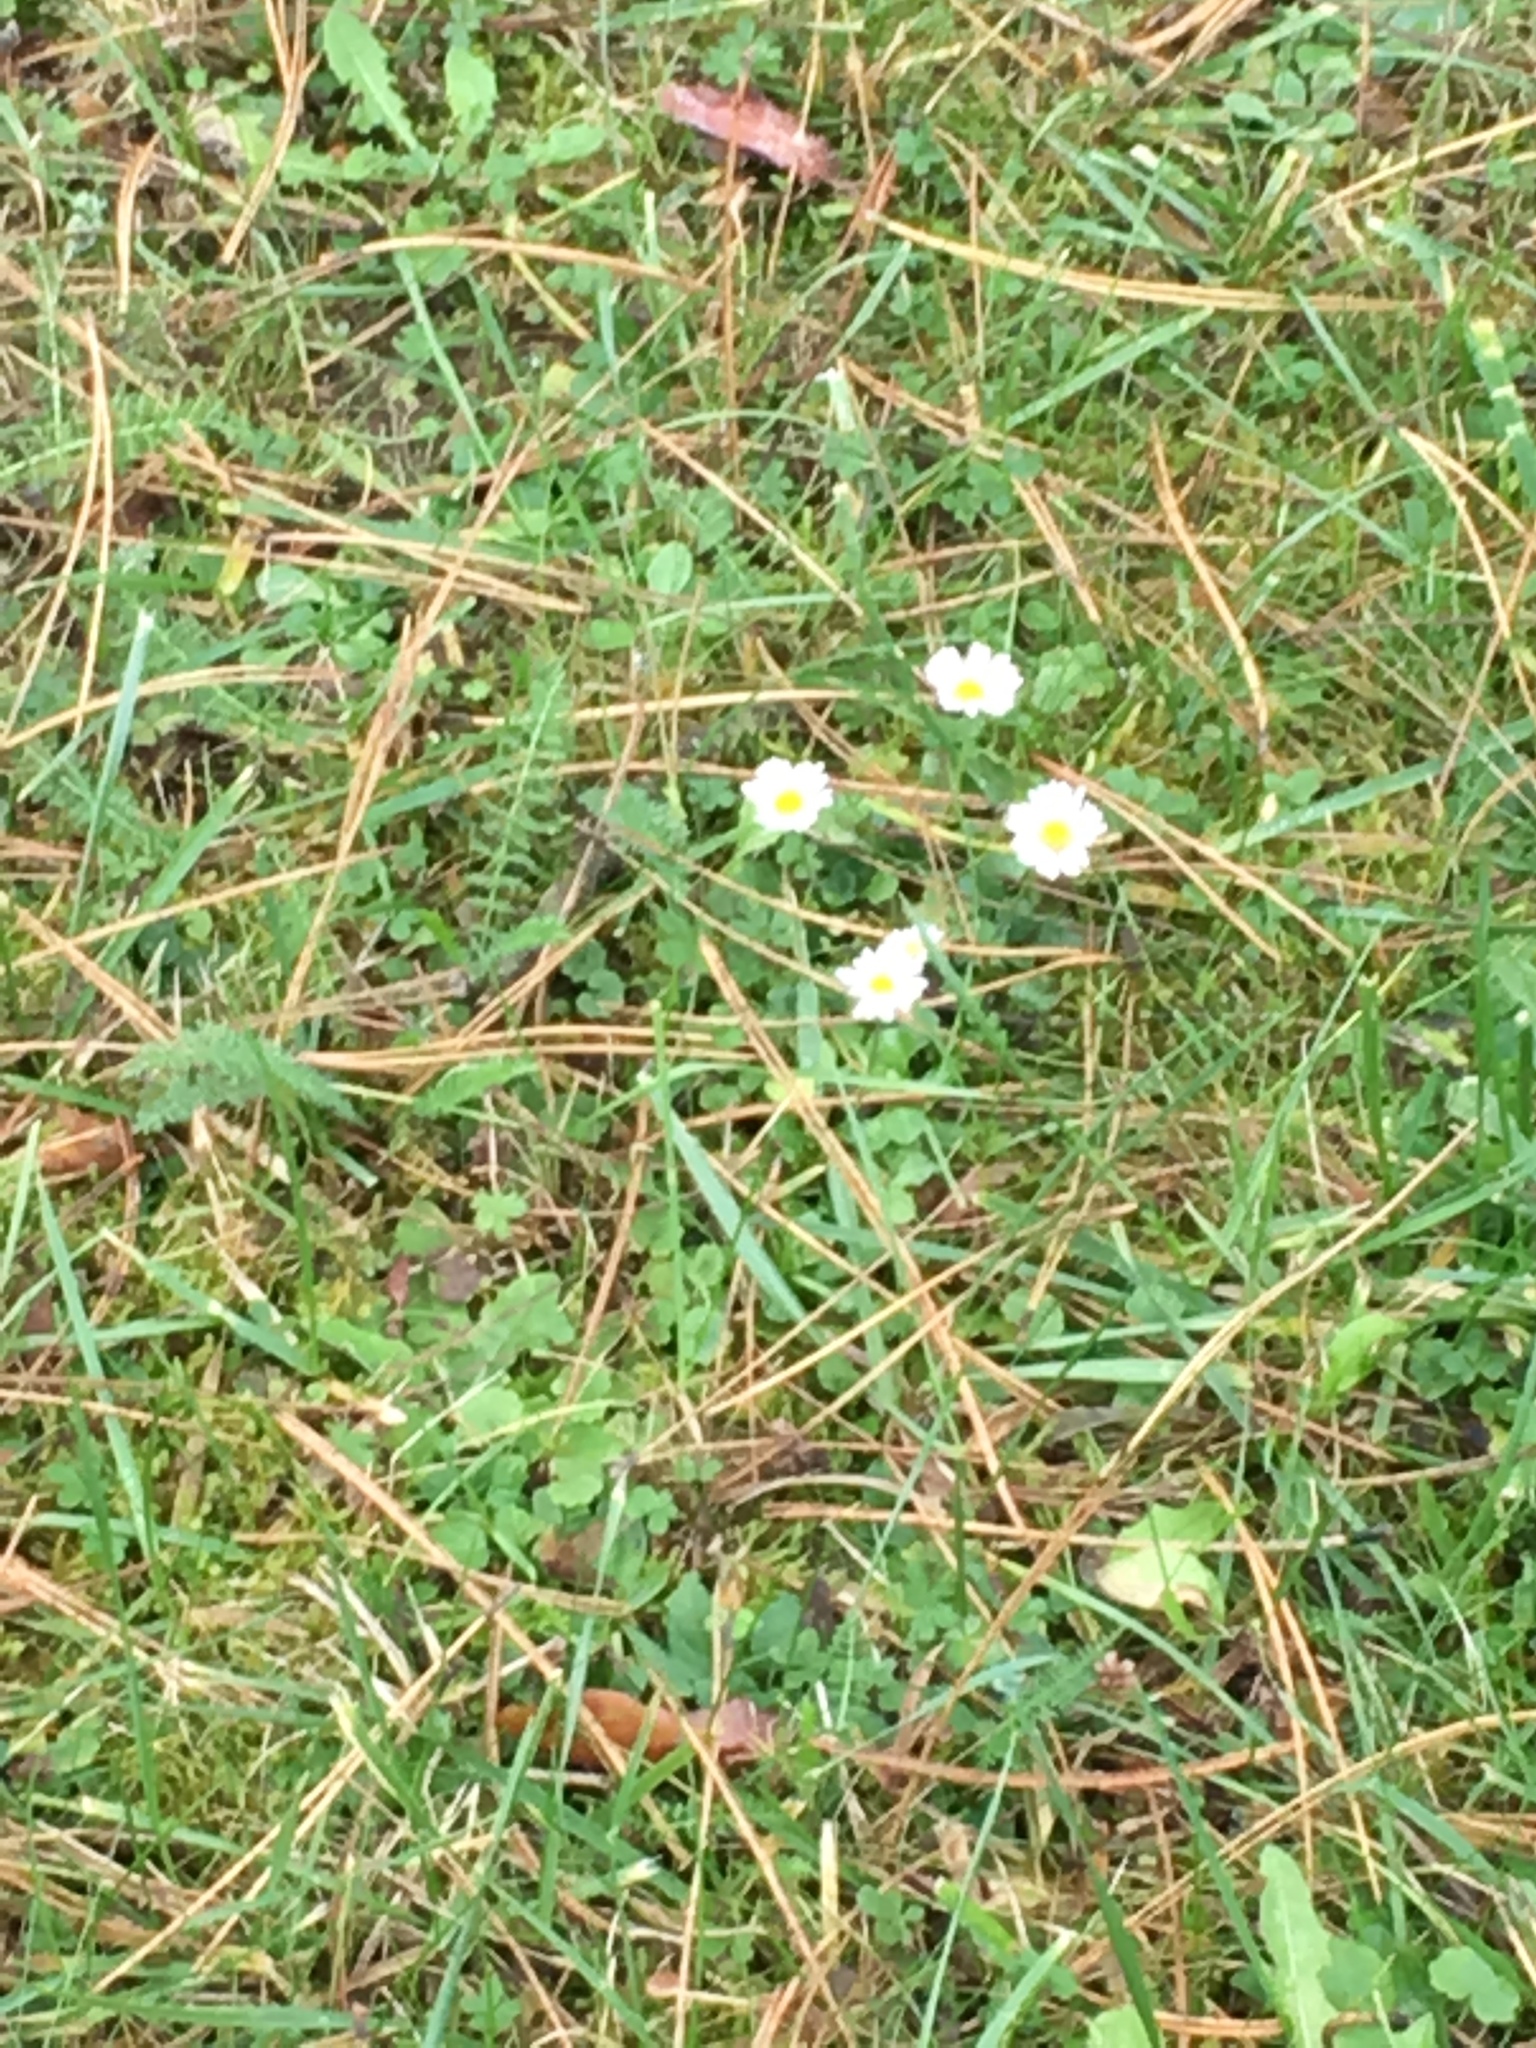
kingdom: Plantae
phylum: Tracheophyta
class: Magnoliopsida
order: Asterales
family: Asteraceae
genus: Bellis
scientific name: Bellis perennis
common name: Lawndaisy
